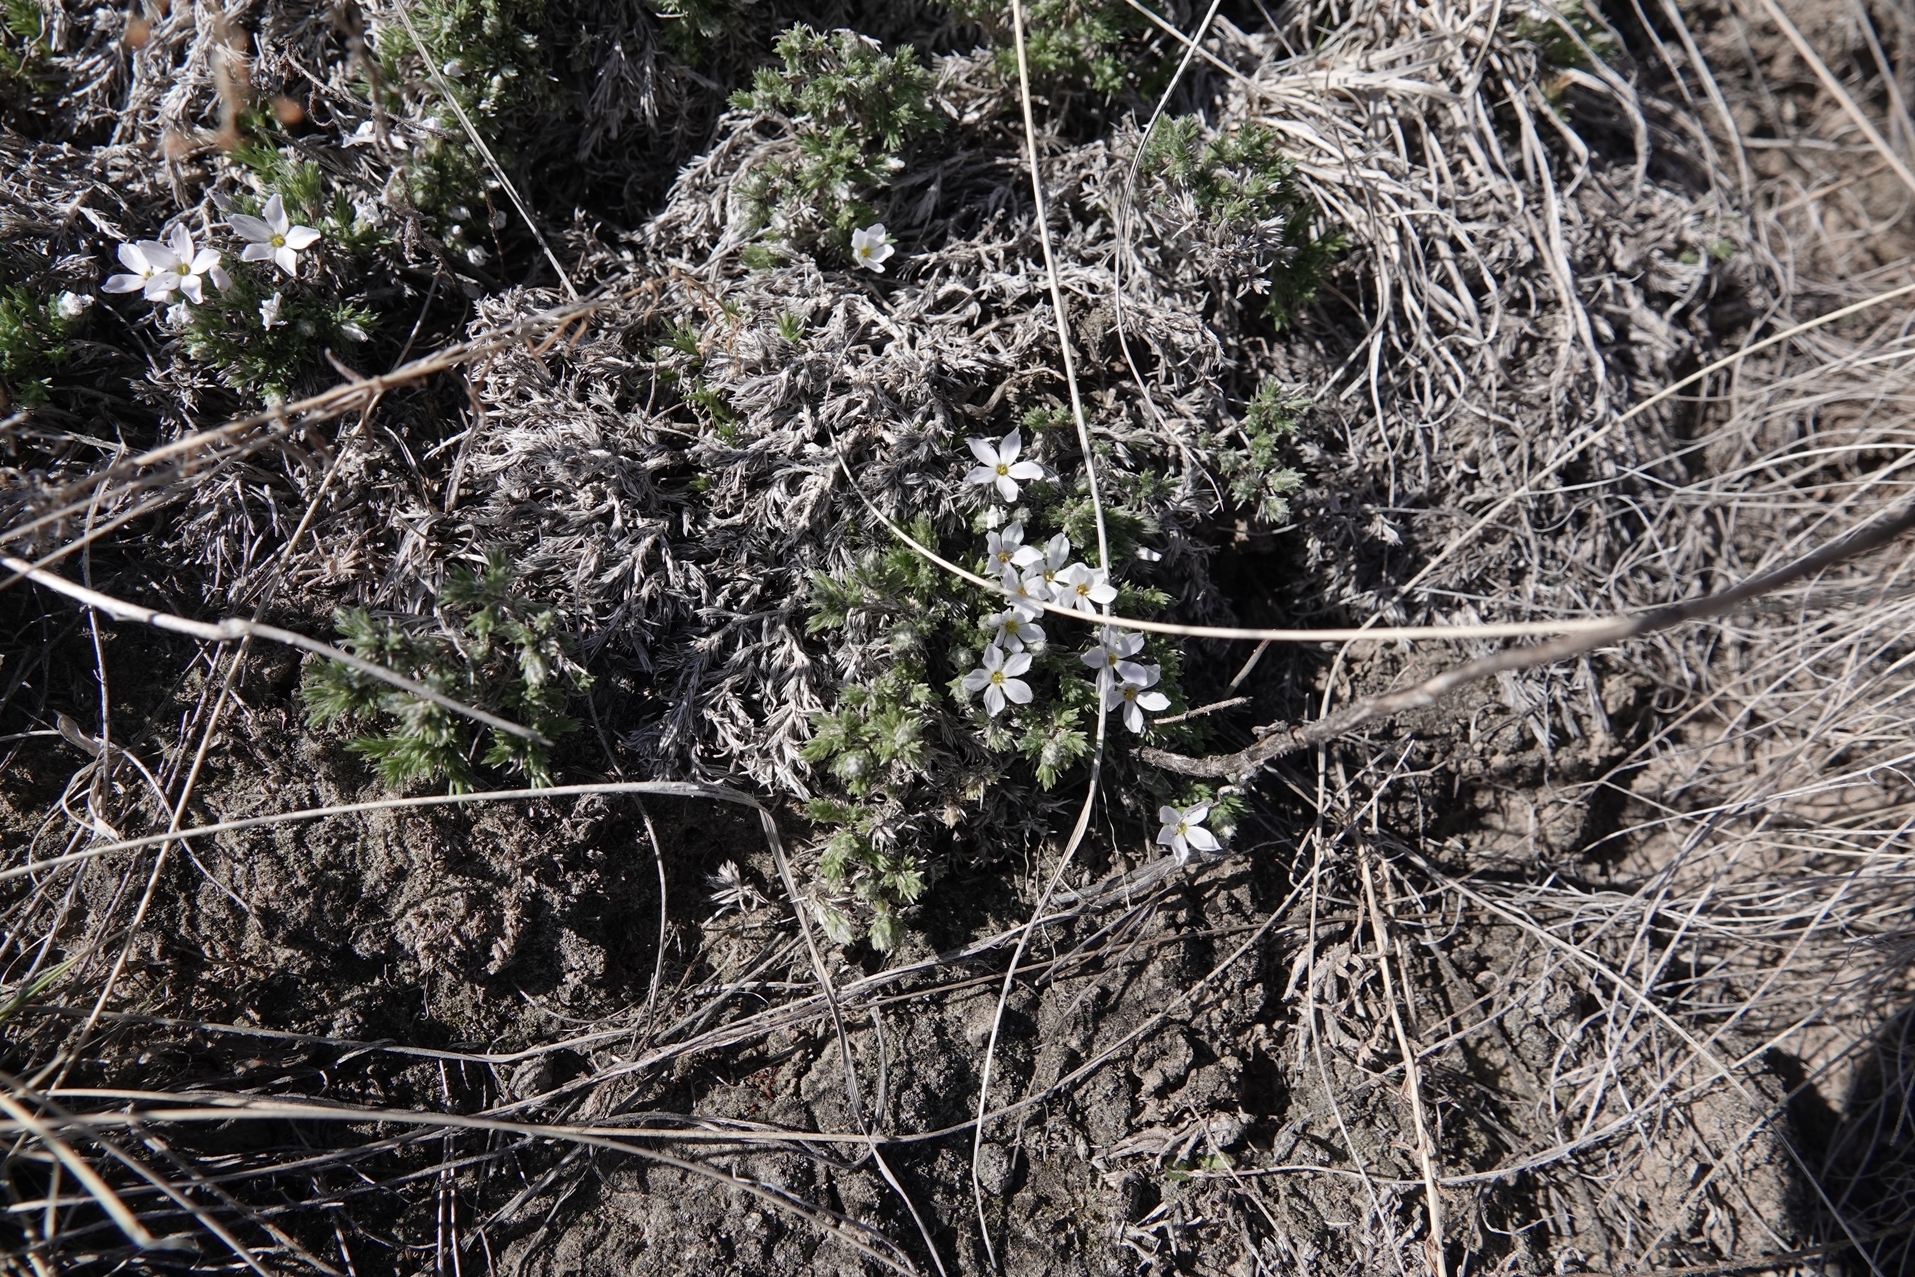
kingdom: Plantae
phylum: Tracheophyta
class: Magnoliopsida
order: Ericales
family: Polemoniaceae
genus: Phlox
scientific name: Phlox hoodii
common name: Moss phlox
